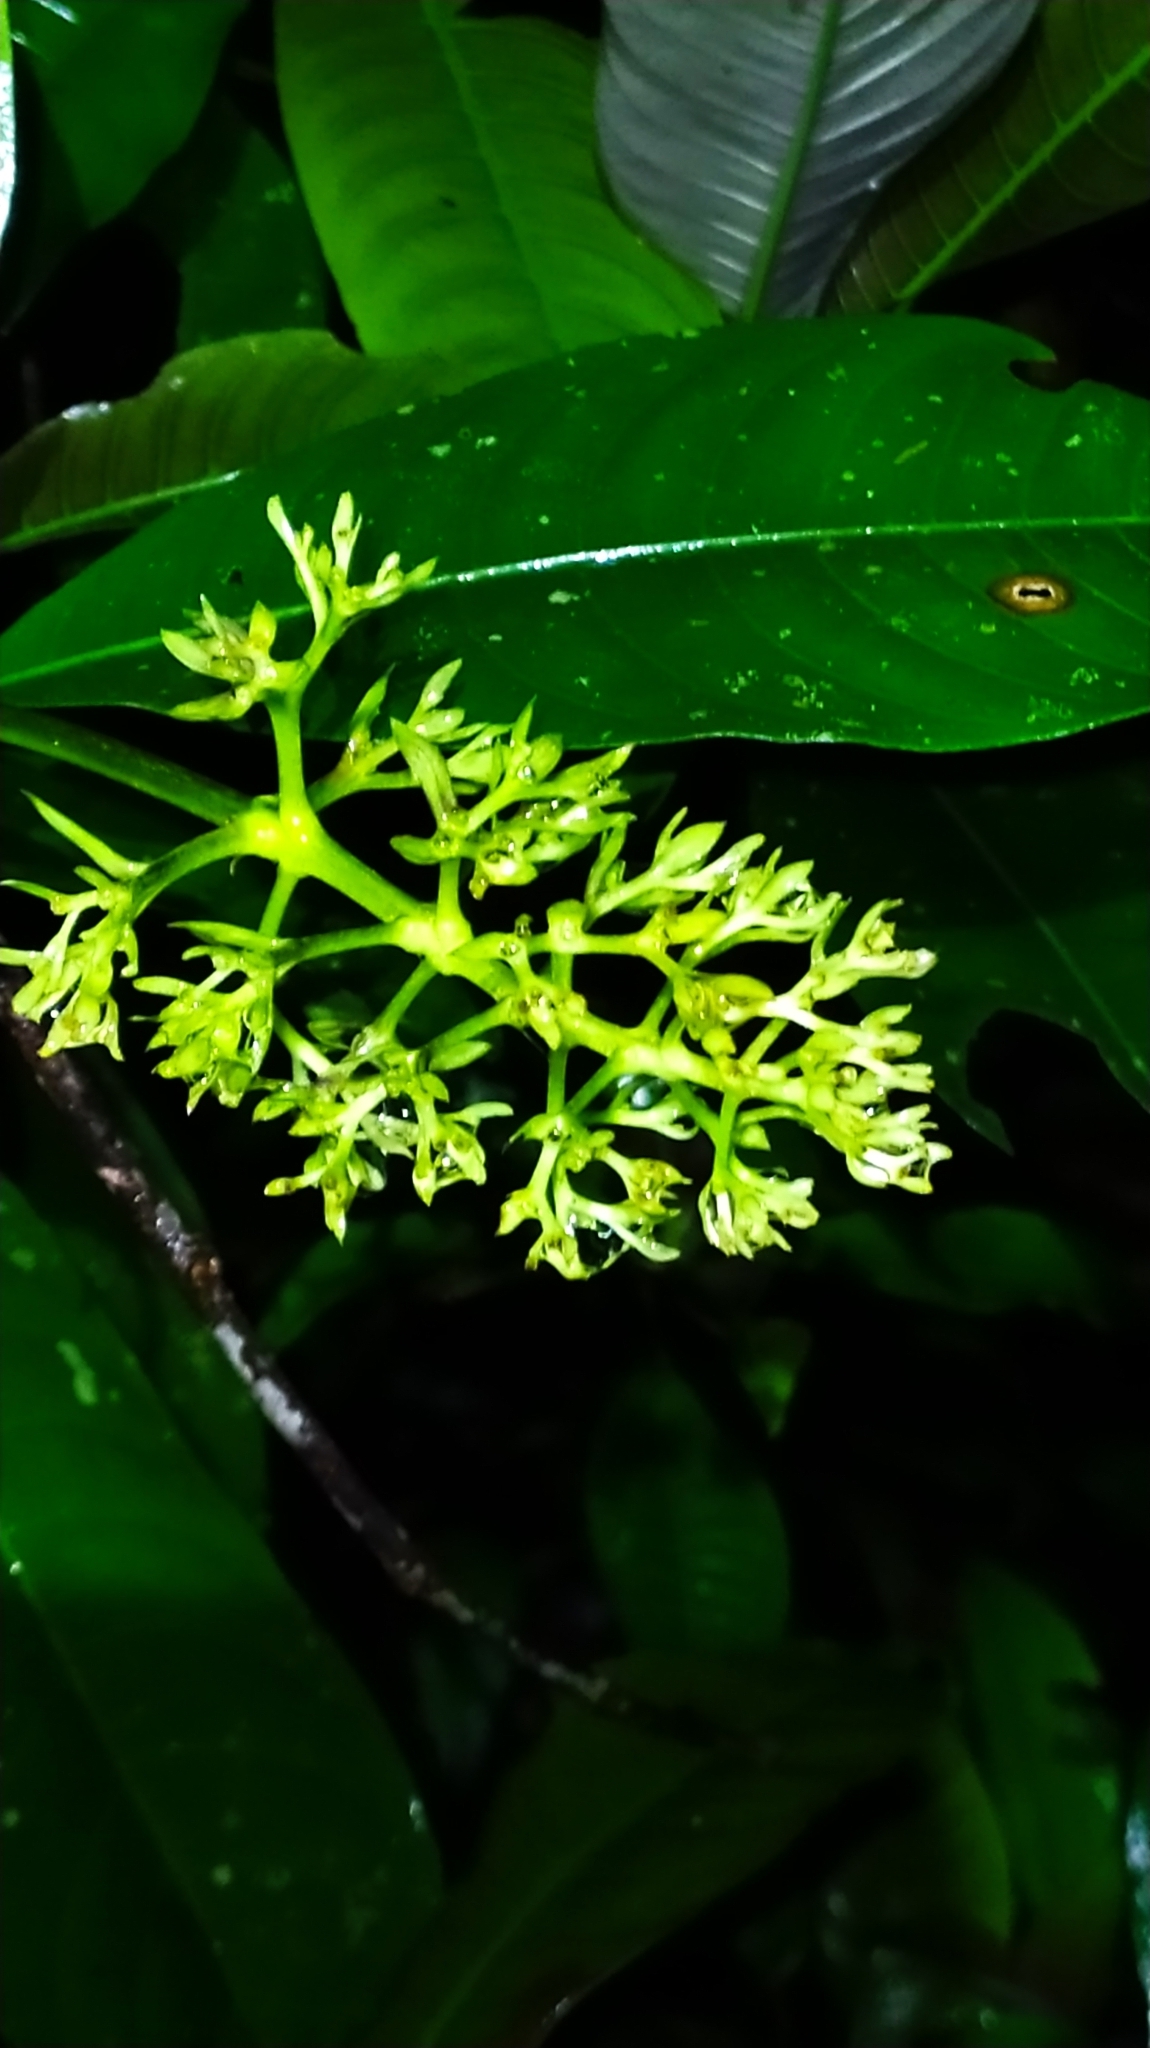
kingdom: Plantae
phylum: Tracheophyta
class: Magnoliopsida
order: Gentianales
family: Rubiaceae
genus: Palicourea
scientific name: Palicourea violacea
